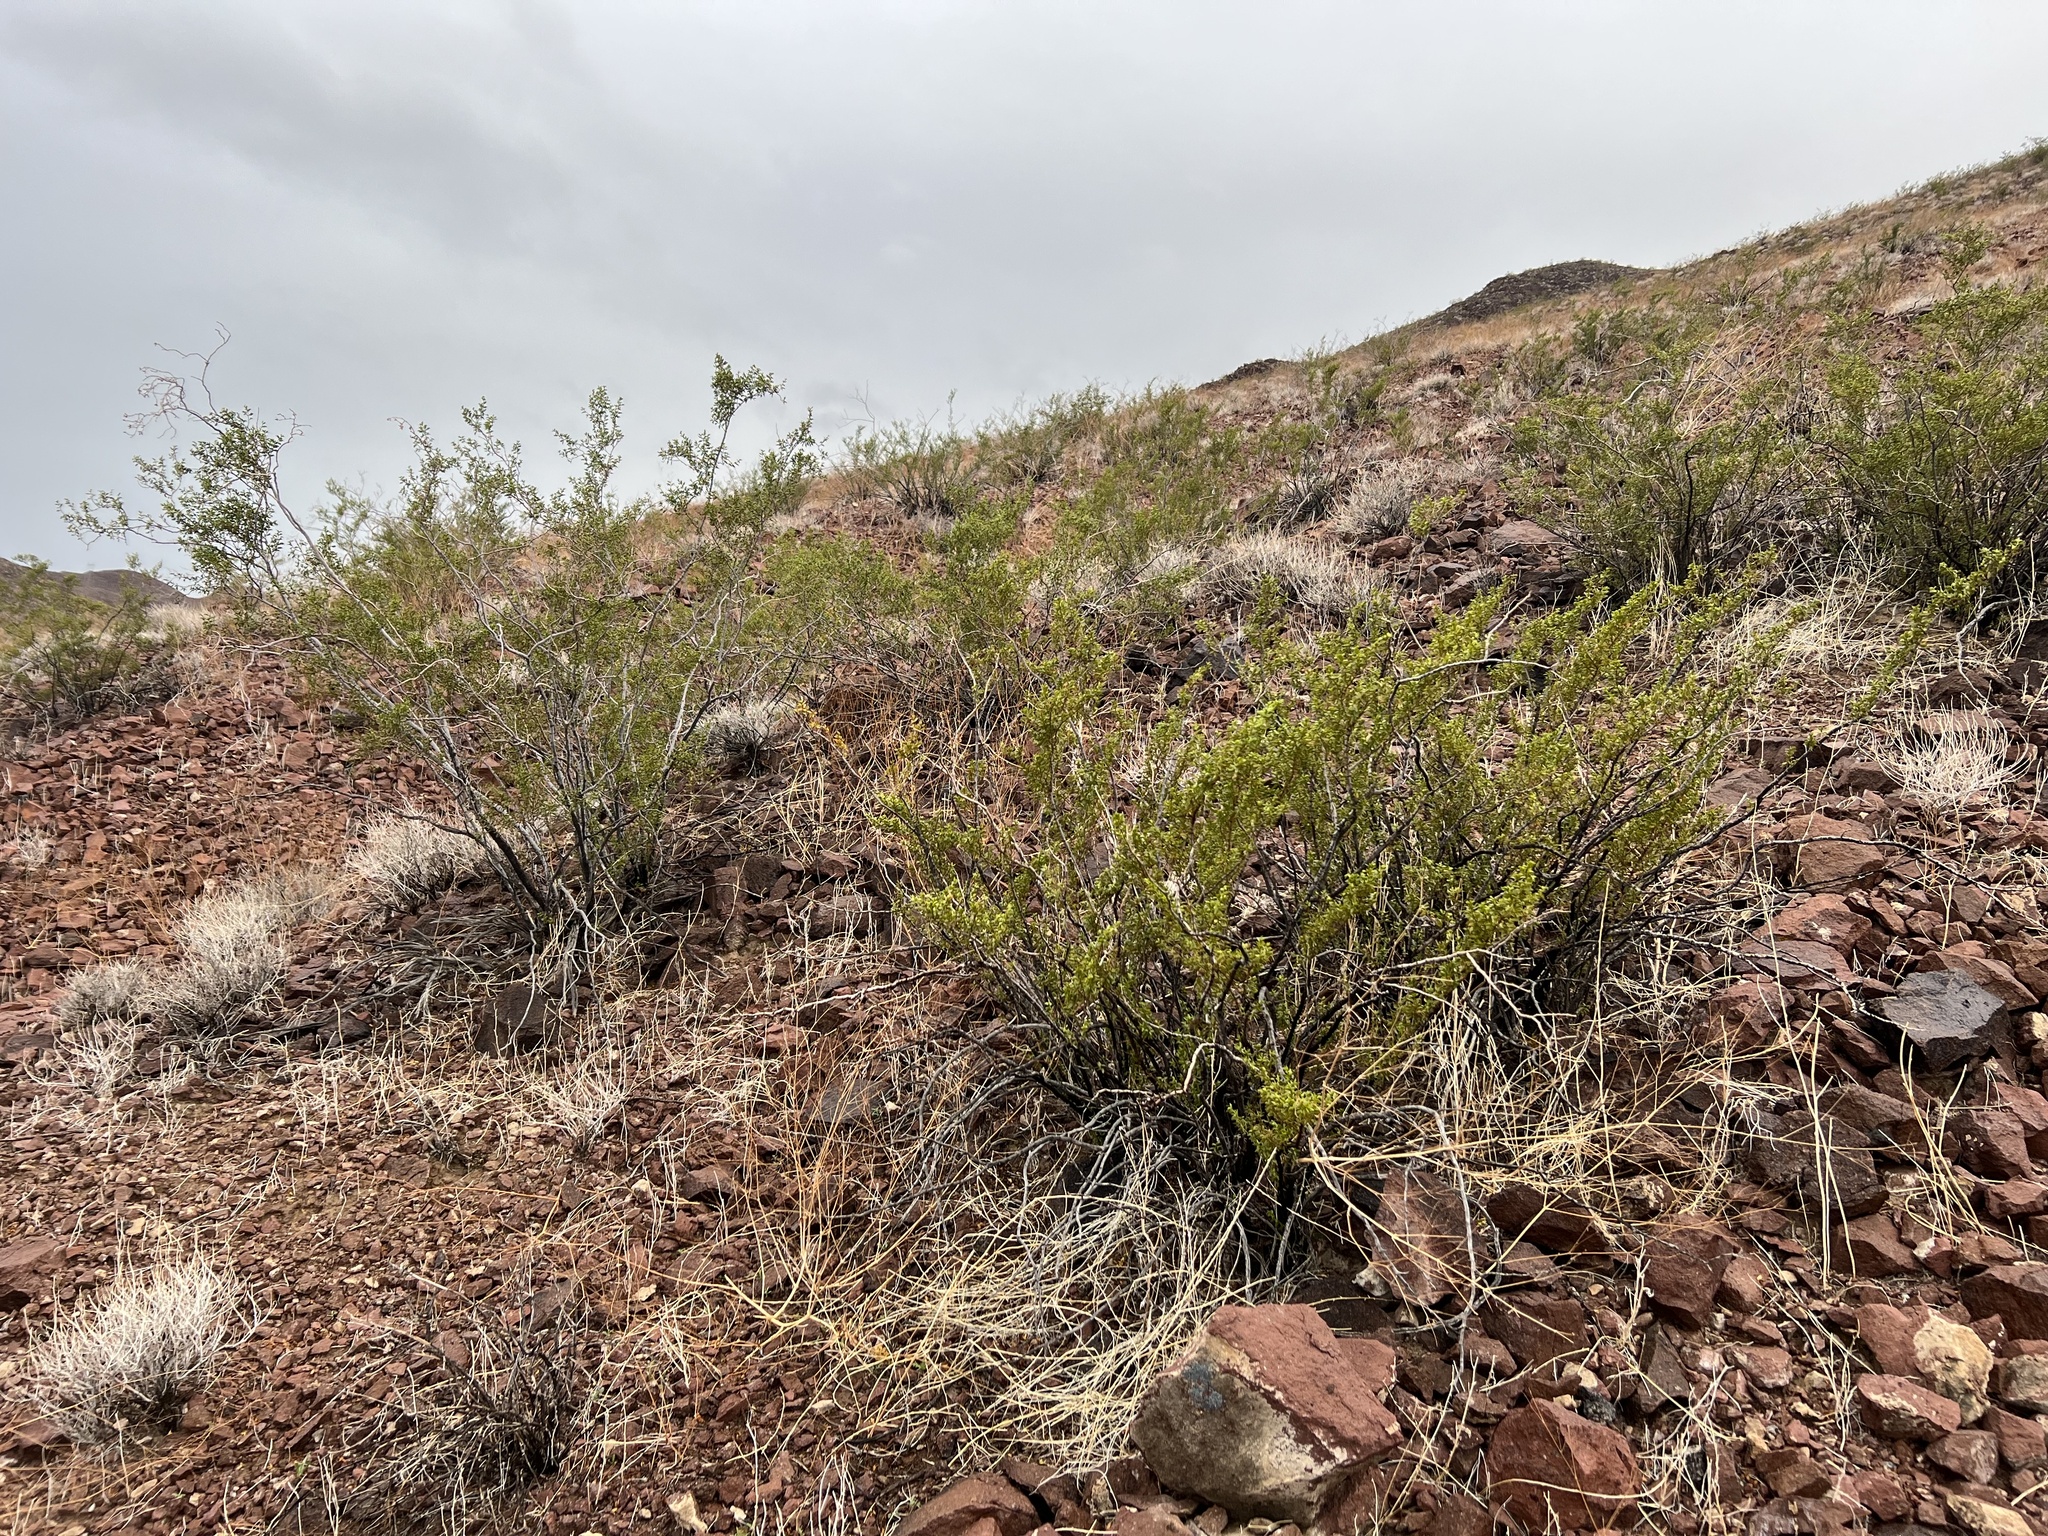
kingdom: Plantae
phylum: Tracheophyta
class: Magnoliopsida
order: Zygophyllales
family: Zygophyllaceae
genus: Larrea
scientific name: Larrea tridentata
